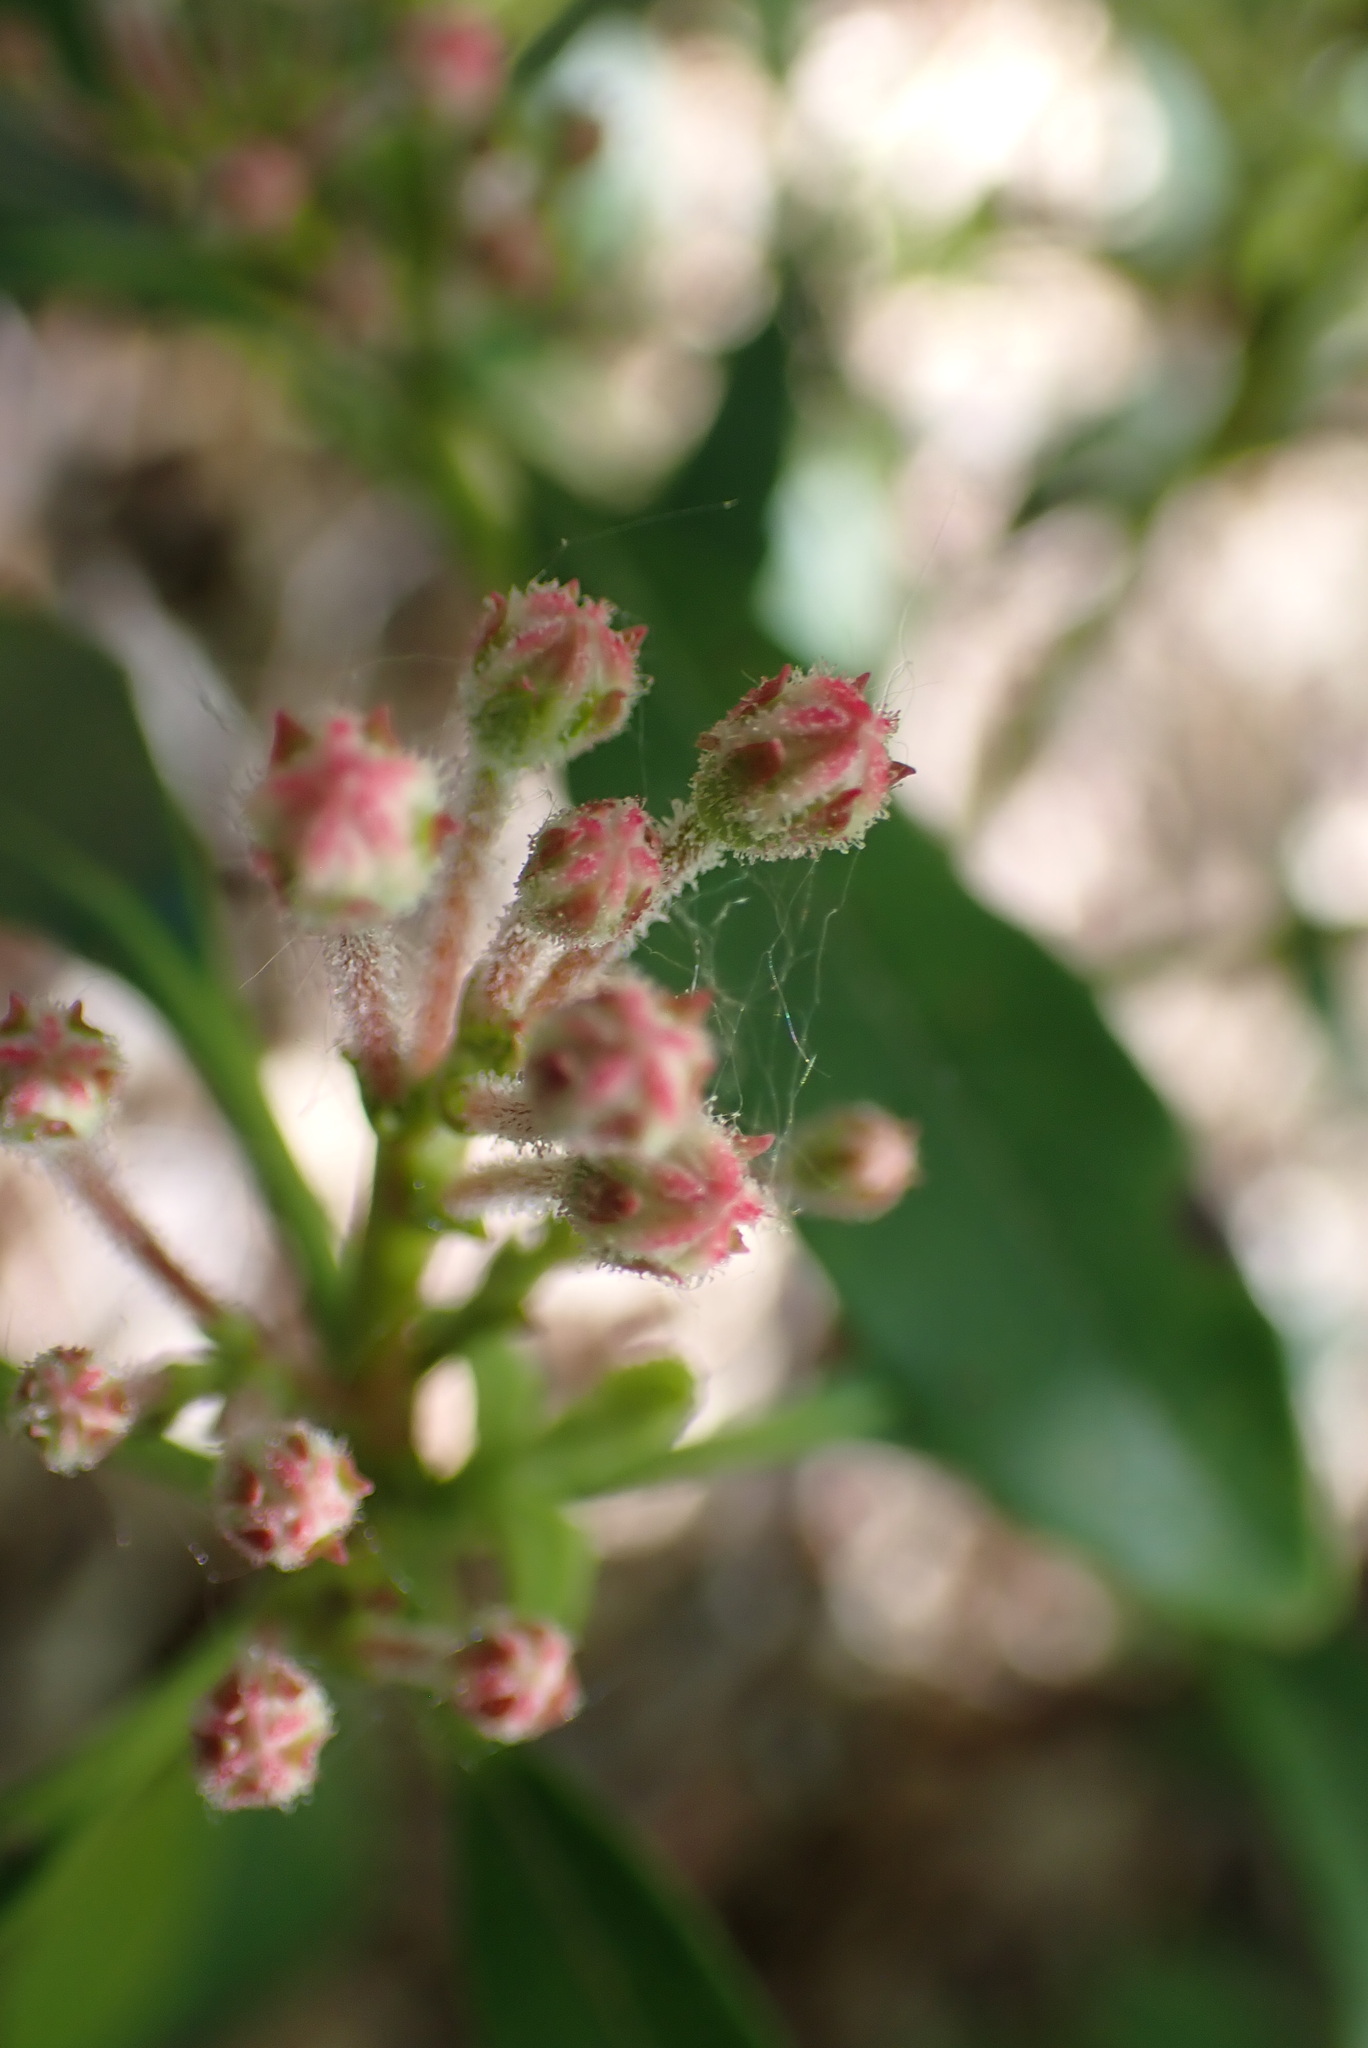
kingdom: Plantae
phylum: Tracheophyta
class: Magnoliopsida
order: Ericales
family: Ericaceae
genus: Kalmia
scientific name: Kalmia latifolia
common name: Mountain-laurel
